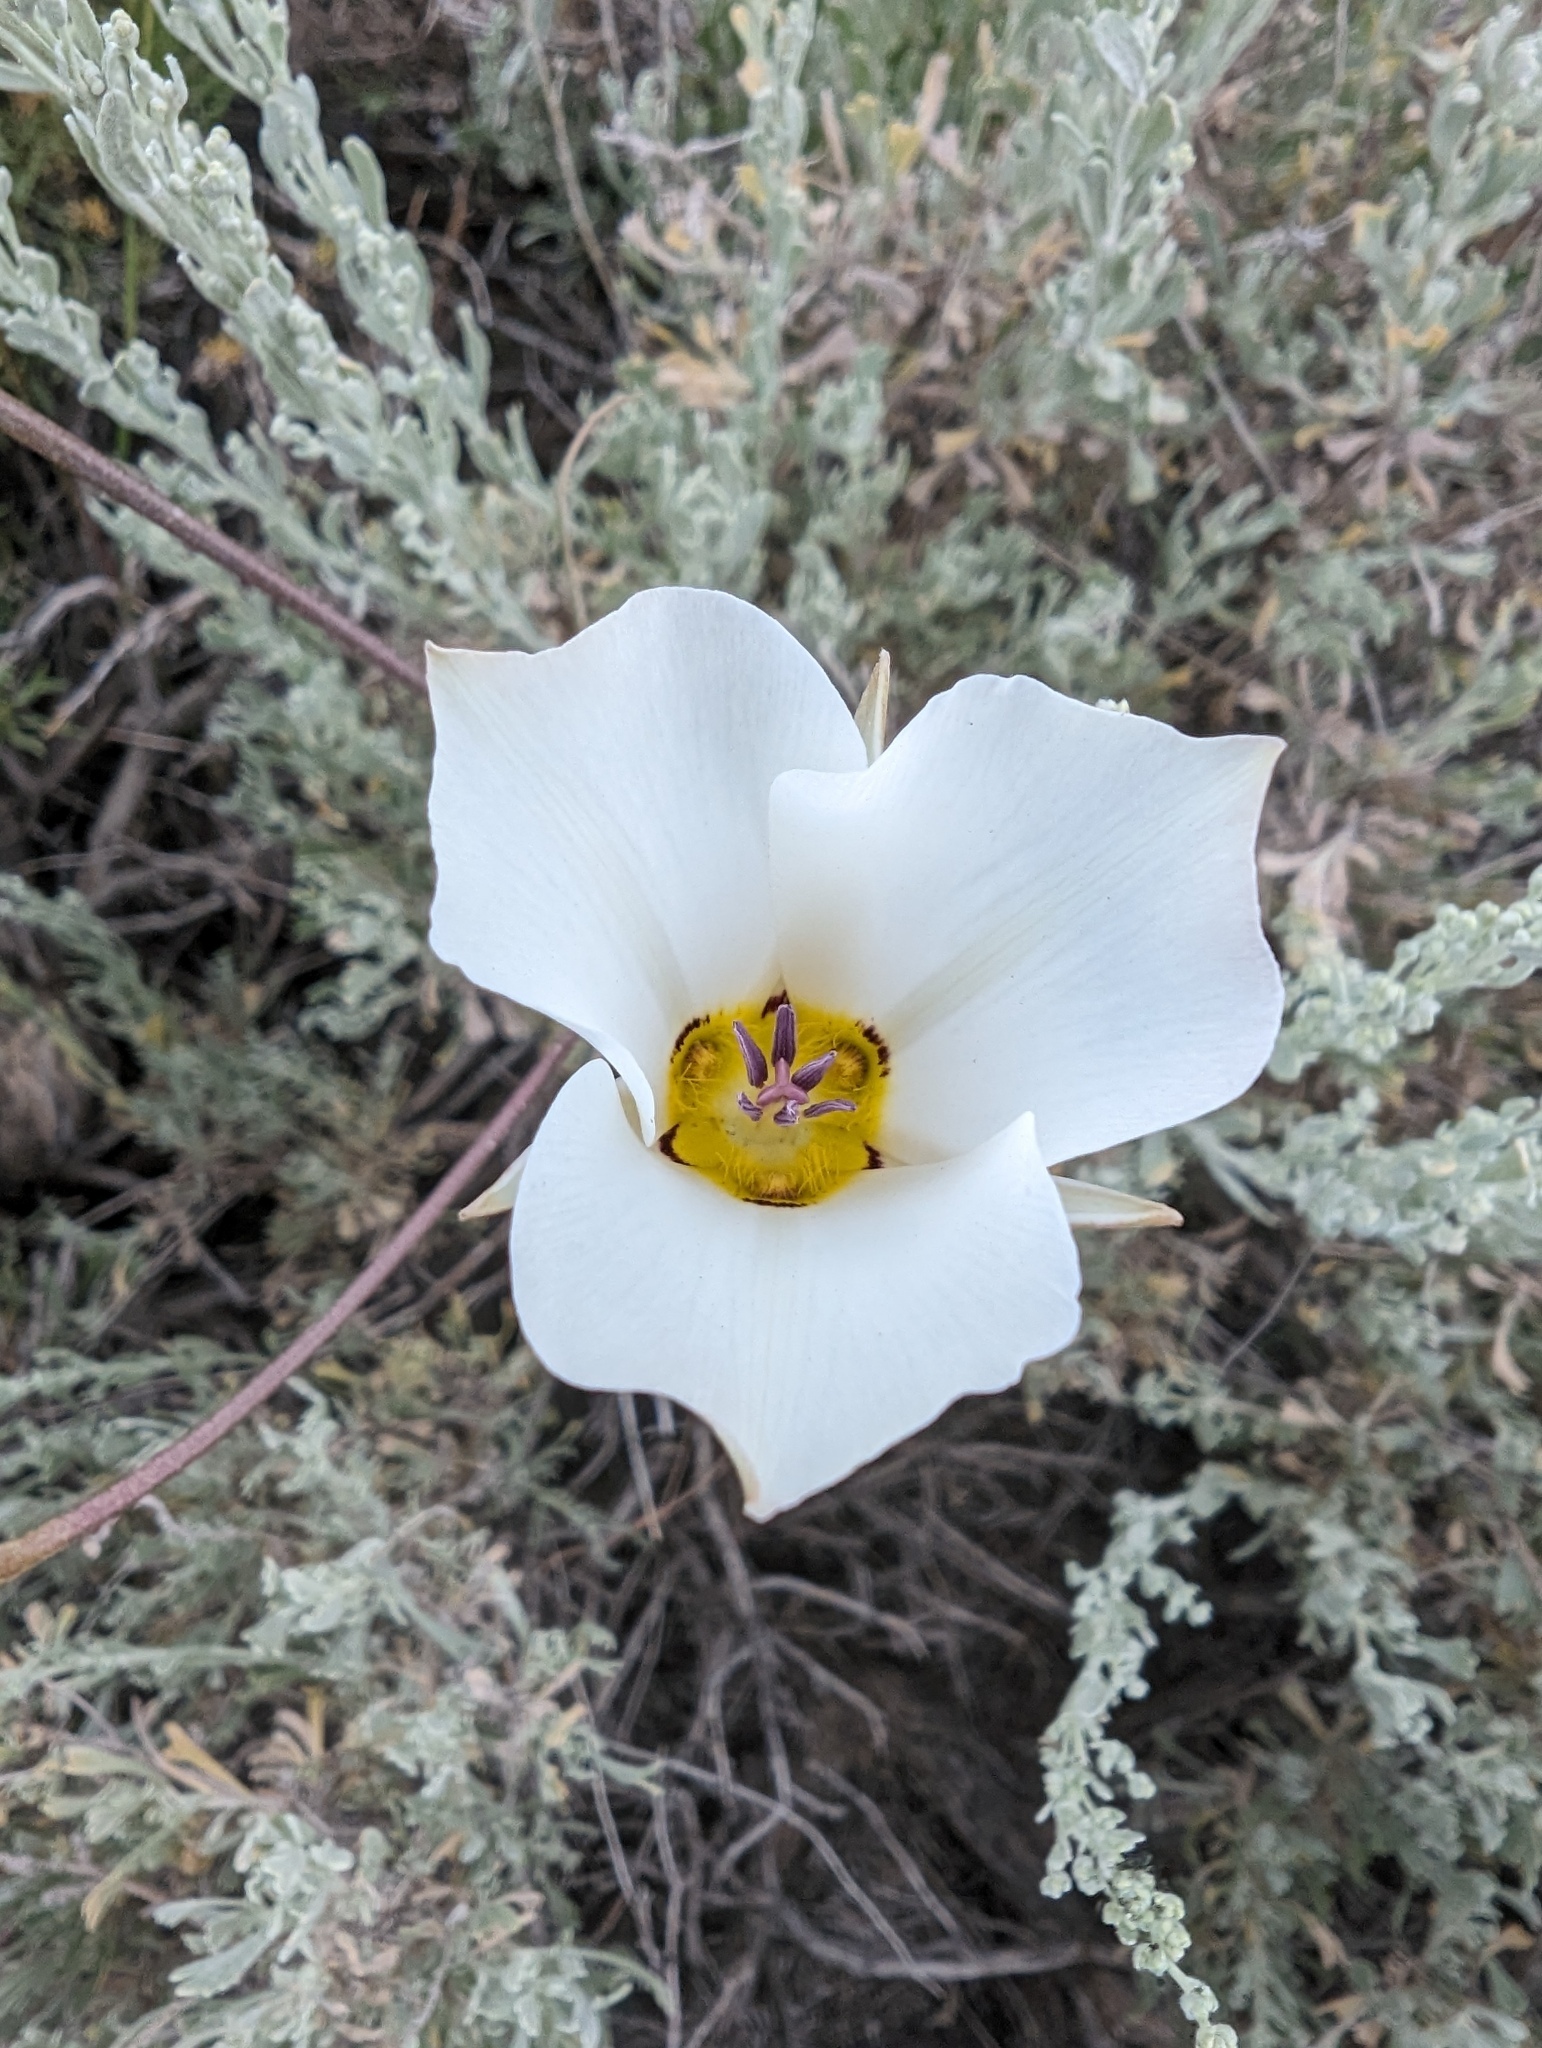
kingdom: Plantae
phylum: Tracheophyta
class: Liliopsida
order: Liliales
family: Liliaceae
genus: Calochortus
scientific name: Calochortus bruneaunis
